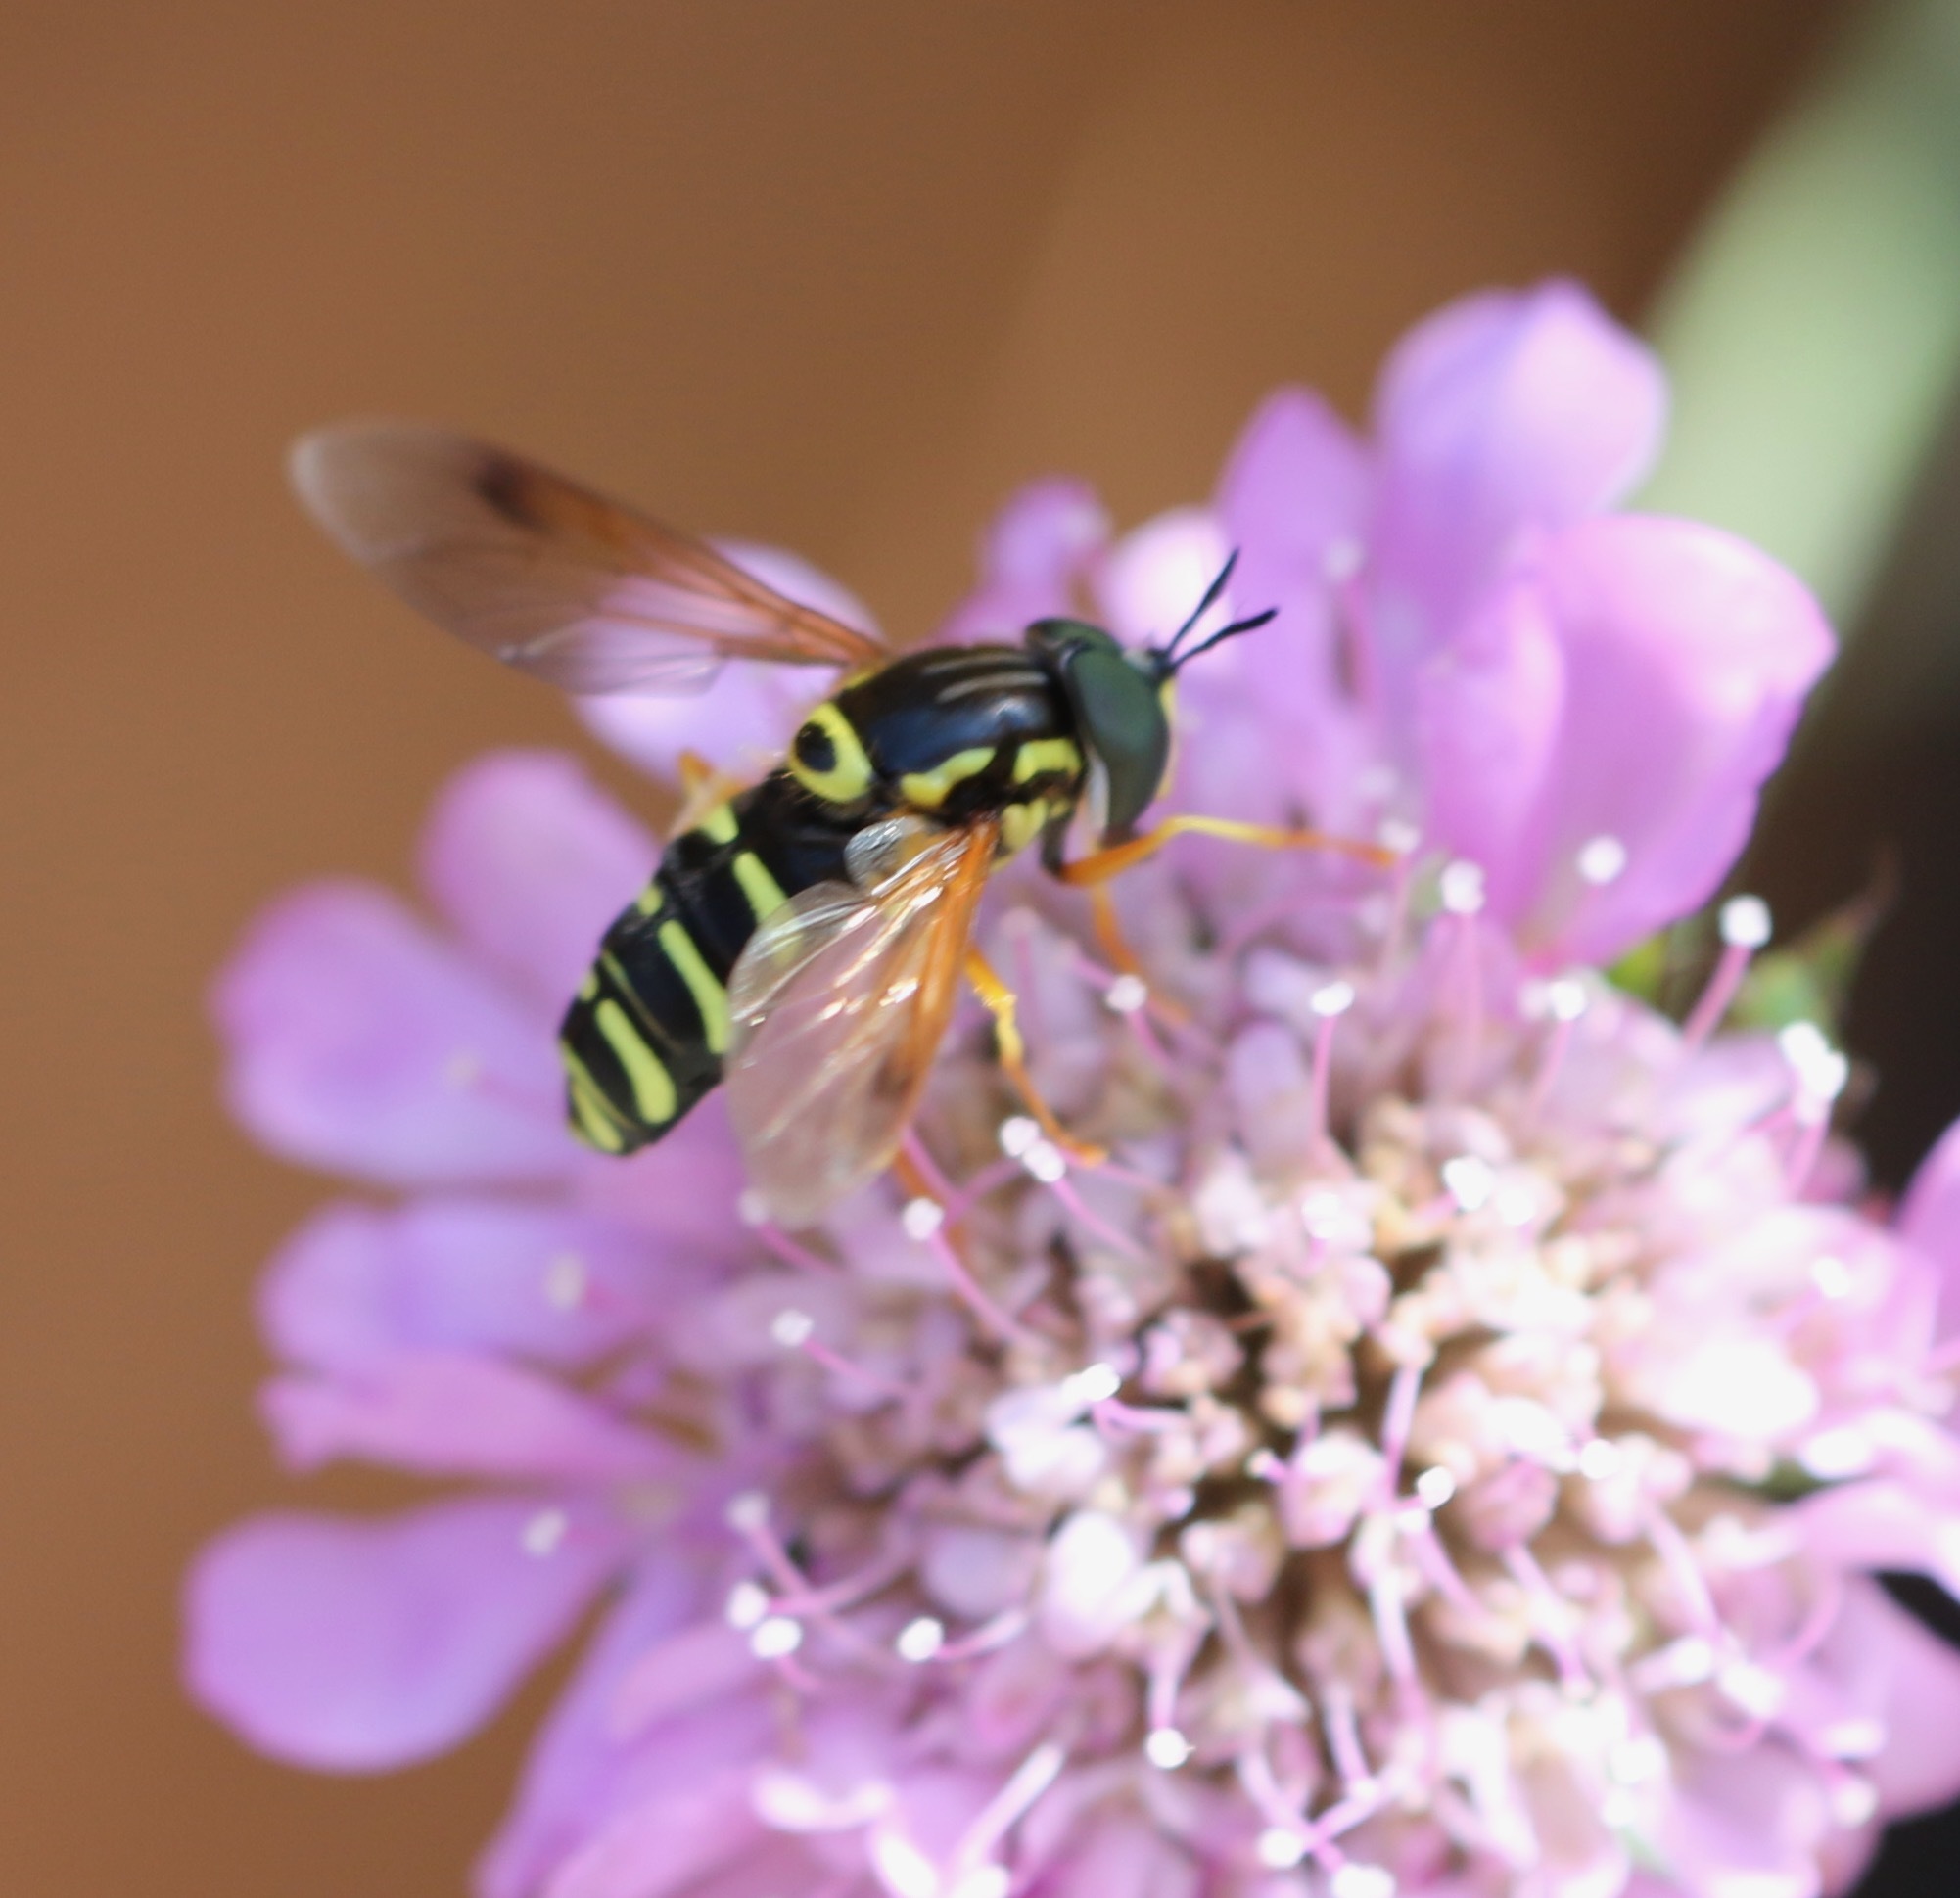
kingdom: Animalia
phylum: Arthropoda
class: Insecta
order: Diptera
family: Syrphidae
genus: Chrysotoxum
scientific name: Chrysotoxum festivum
